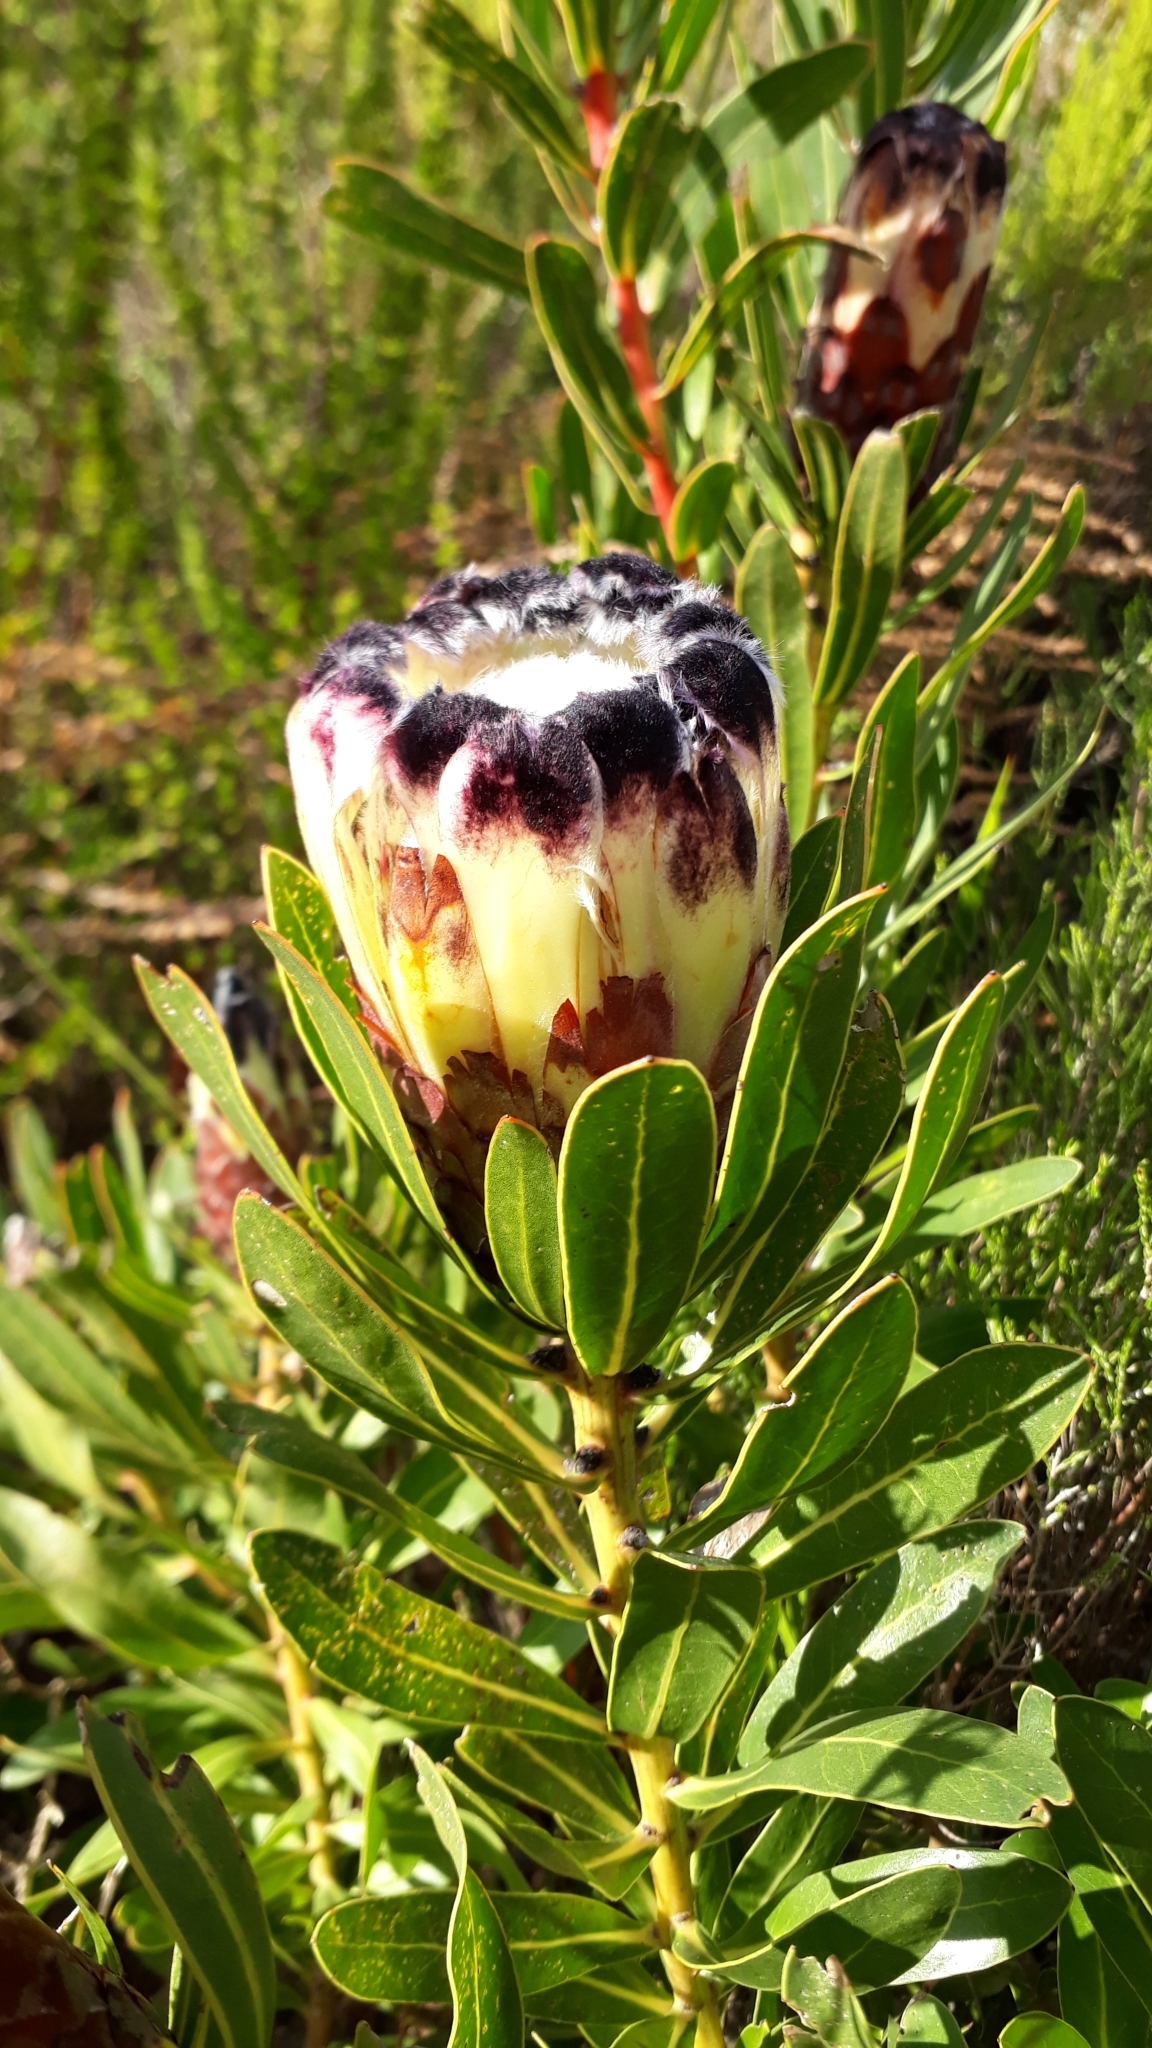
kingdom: Plantae
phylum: Tracheophyta
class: Magnoliopsida
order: Proteales
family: Proteaceae
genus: Protea
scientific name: Protea lepidocarpodendron
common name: Black-bearded protea
